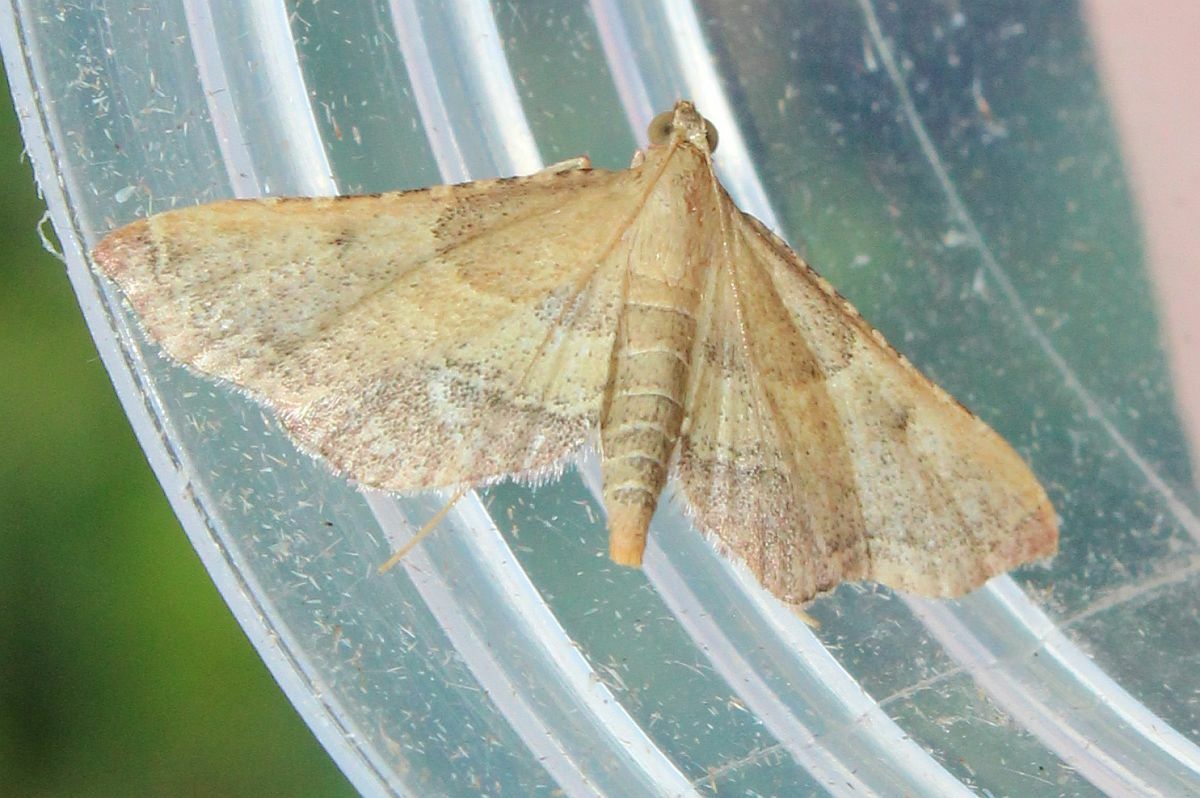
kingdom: Animalia
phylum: Arthropoda
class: Insecta
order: Lepidoptera
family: Pyralidae
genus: Endotricha
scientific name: Endotricha flammealis
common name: Rosy tabby
